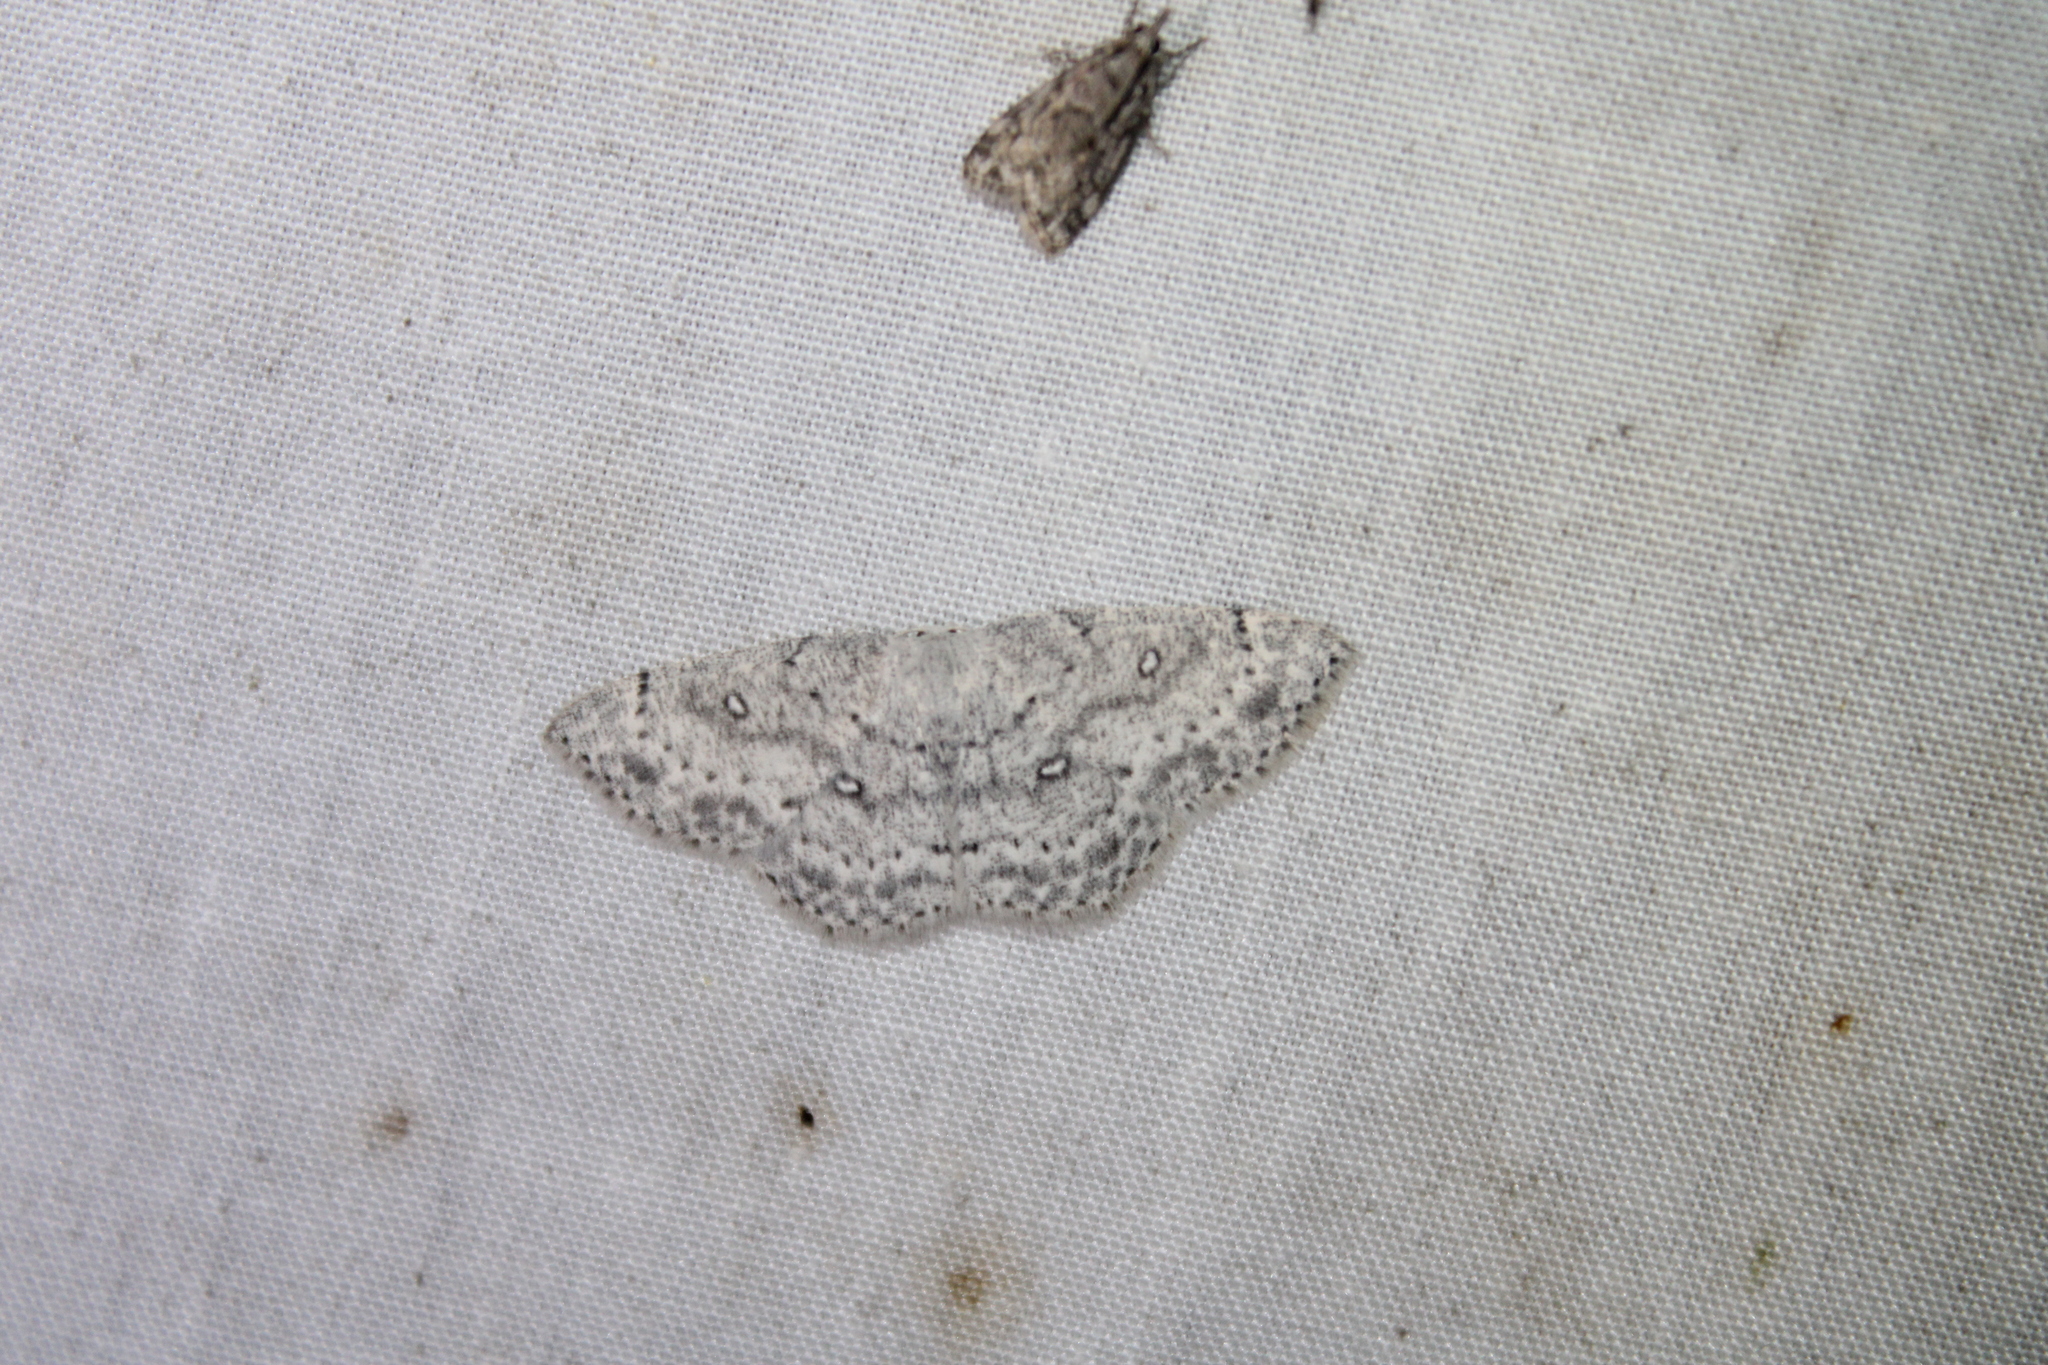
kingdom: Animalia
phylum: Arthropoda
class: Insecta
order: Lepidoptera
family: Geometridae
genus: Cyclophora
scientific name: Cyclophora pendulinaria
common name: Sweet fern geometer
